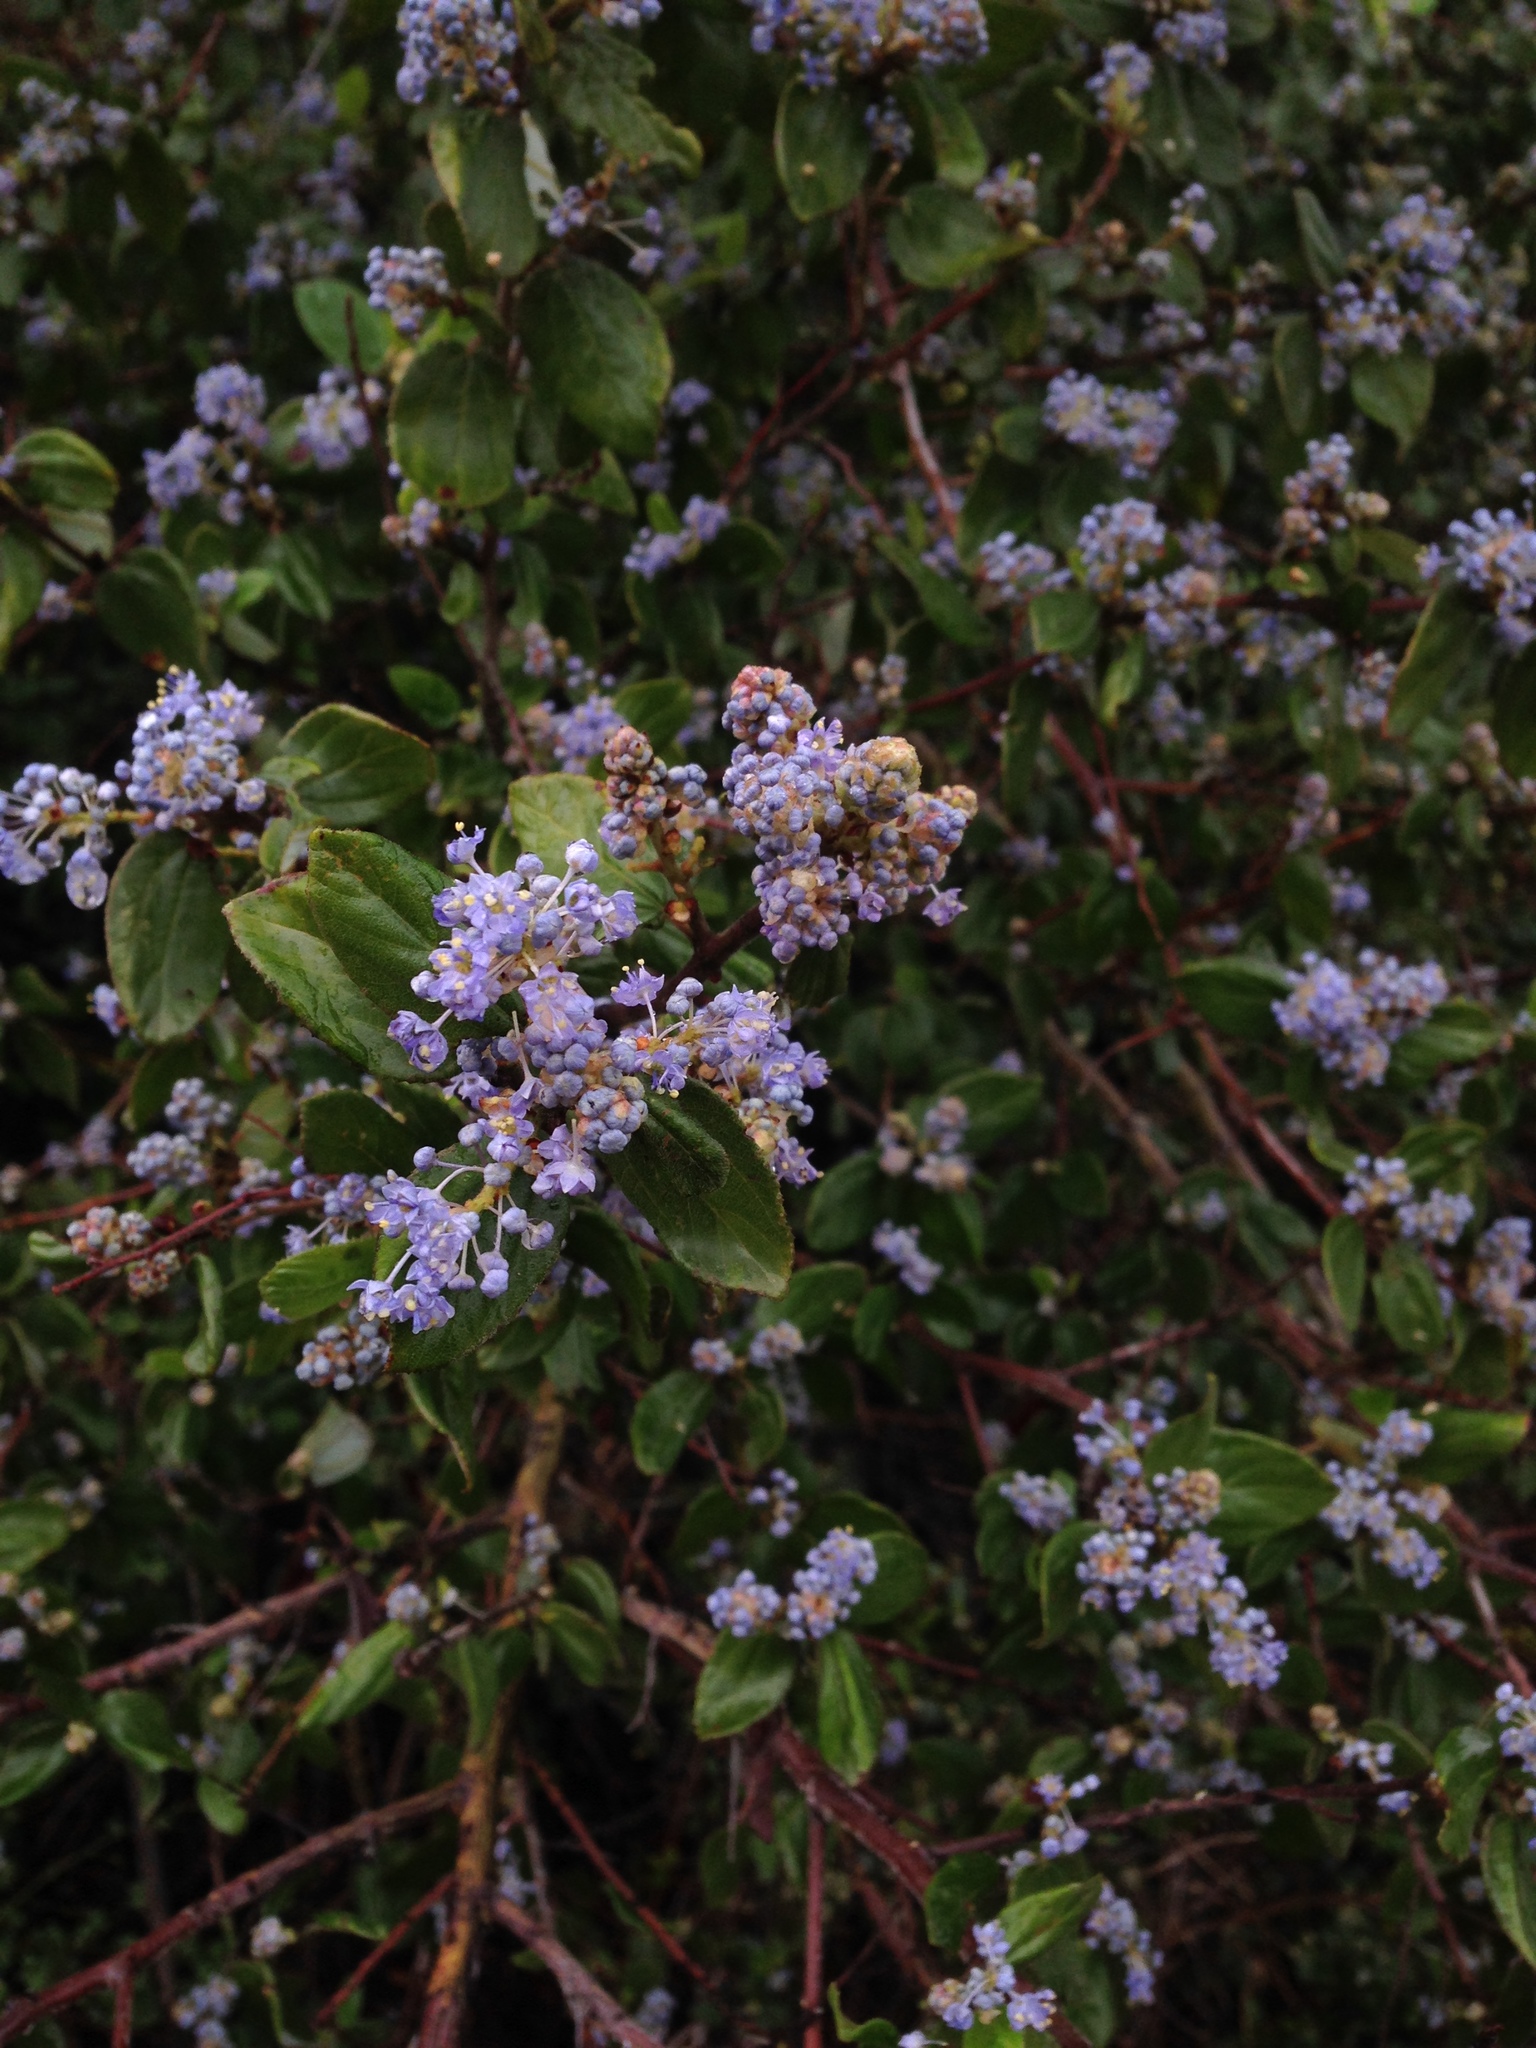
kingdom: Plantae
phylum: Tracheophyta
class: Magnoliopsida
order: Rosales
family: Rhamnaceae
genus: Ceanothus
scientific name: Ceanothus oliganthus
